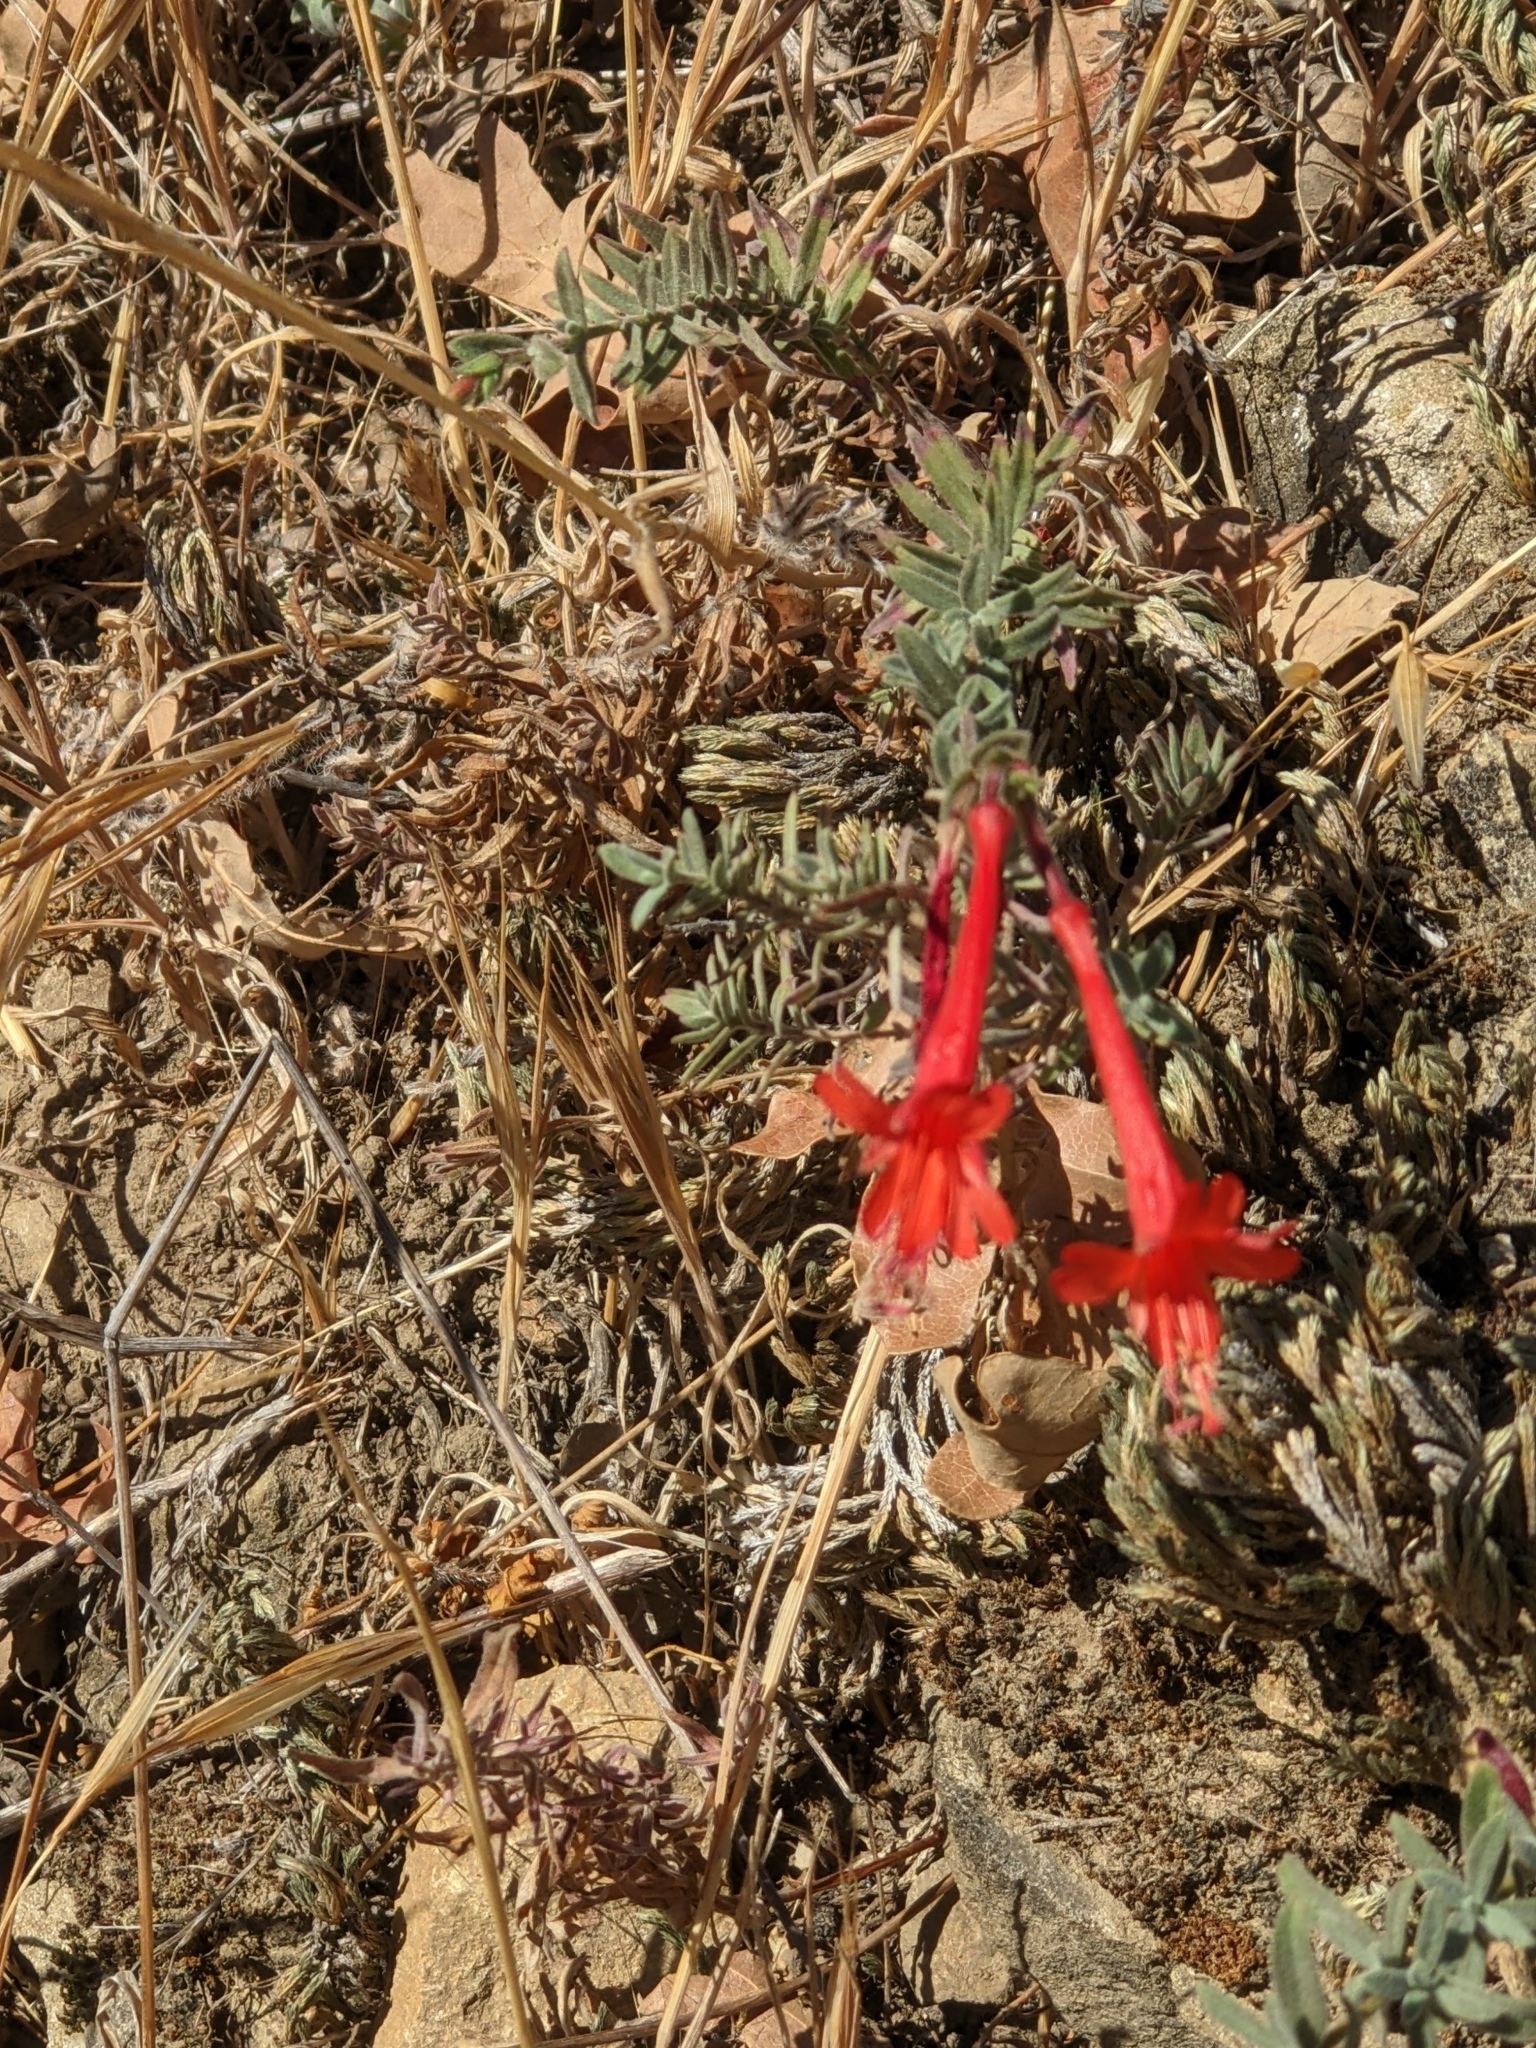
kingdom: Plantae
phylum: Tracheophyta
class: Magnoliopsida
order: Myrtales
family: Onagraceae
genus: Epilobium
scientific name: Epilobium canum
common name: California-fuchsia
